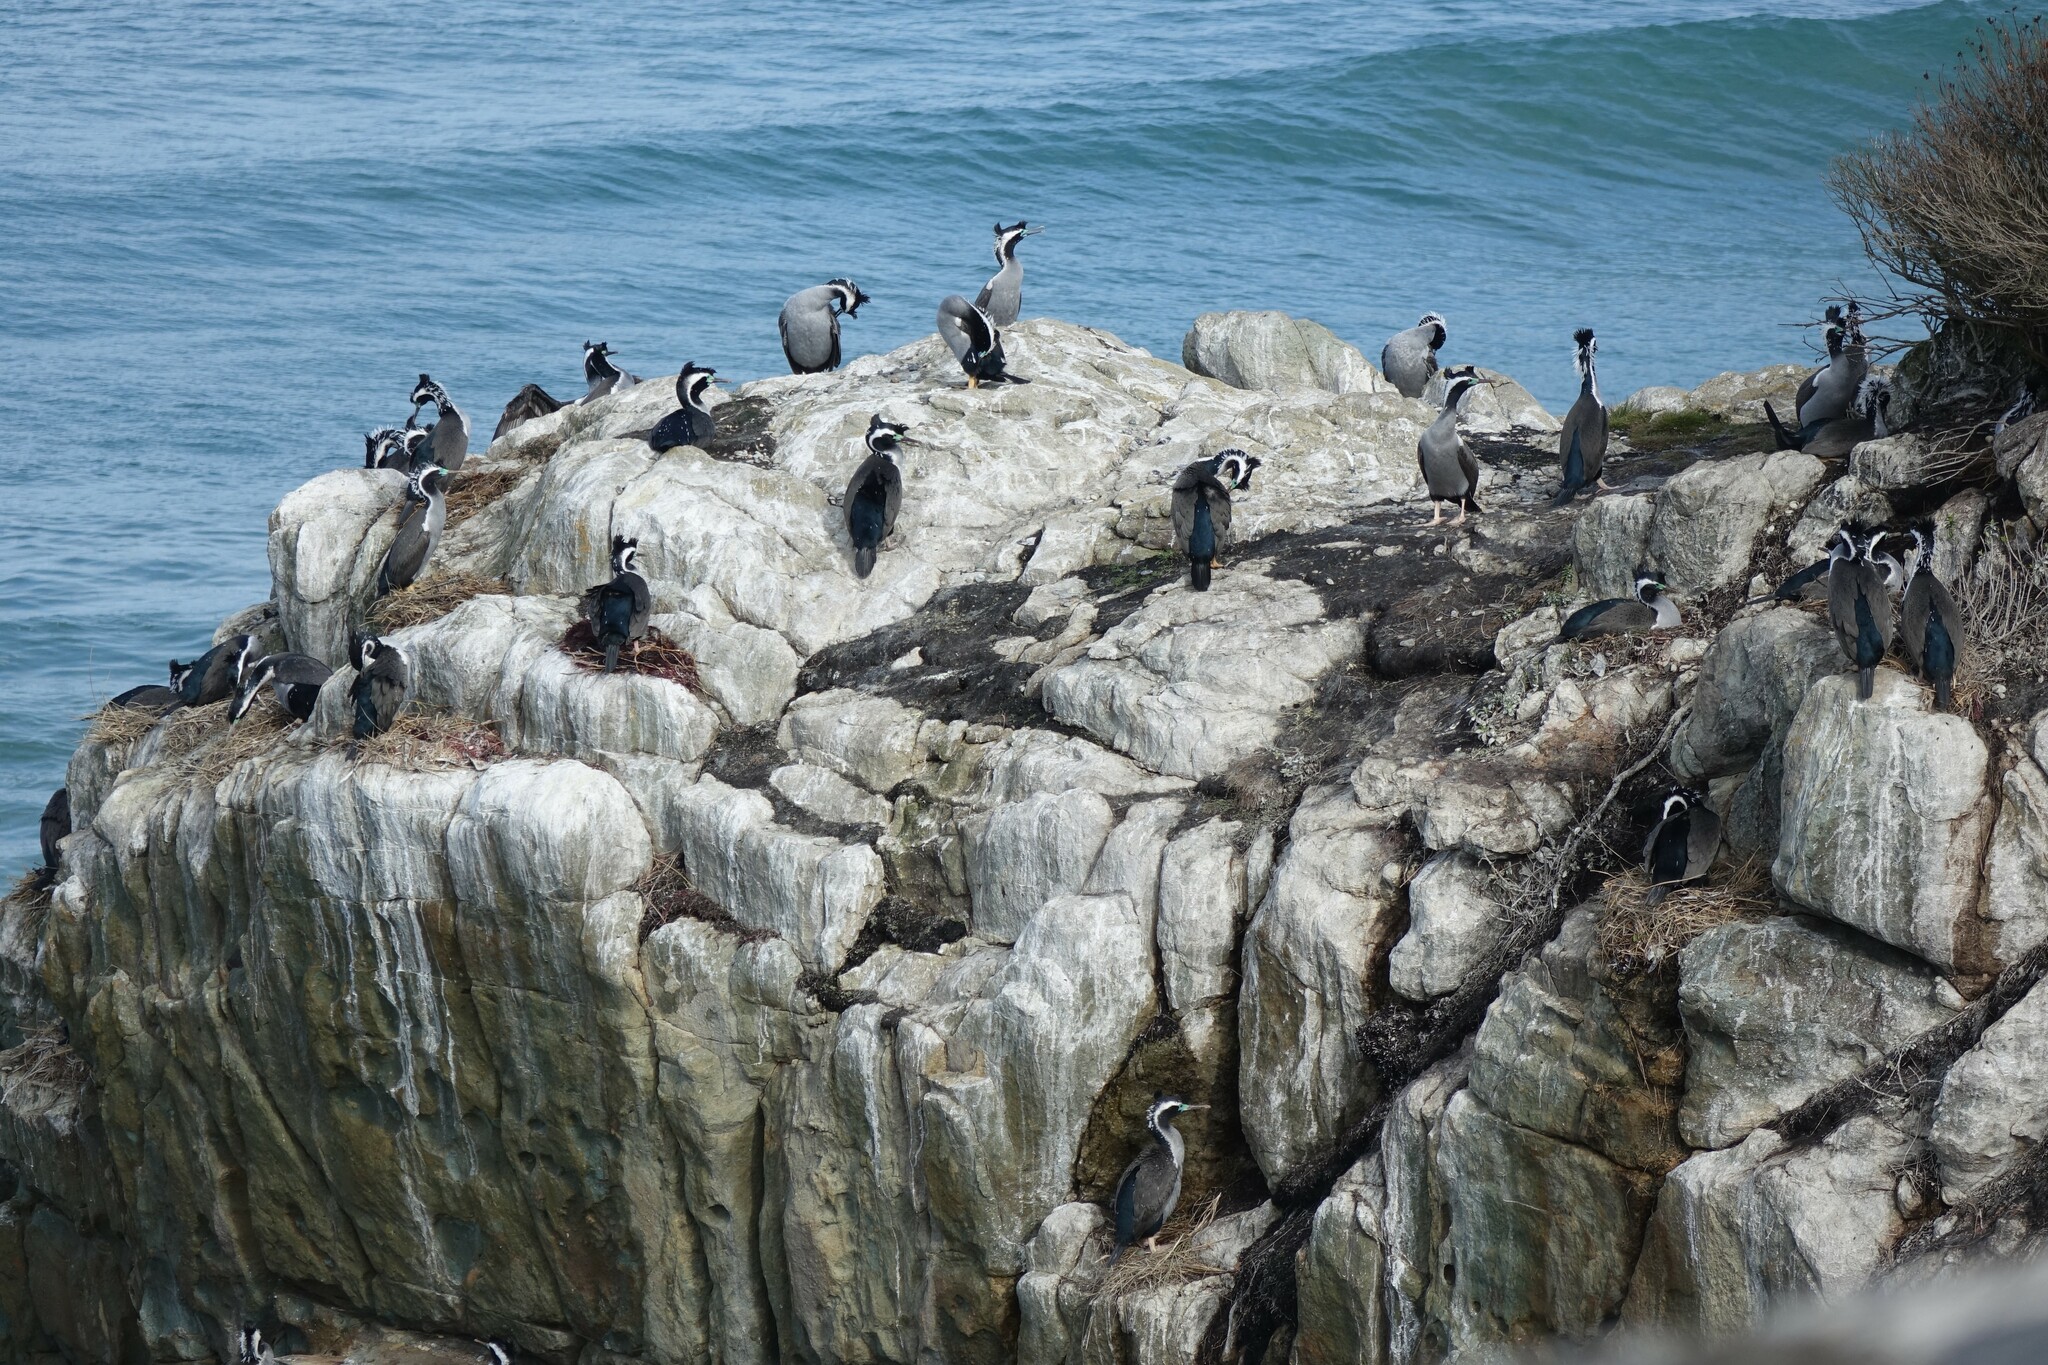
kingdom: Animalia
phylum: Chordata
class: Aves
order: Suliformes
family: Phalacrocoracidae
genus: Phalacrocorax
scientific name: Phalacrocorax punctatus
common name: Spotted shag
